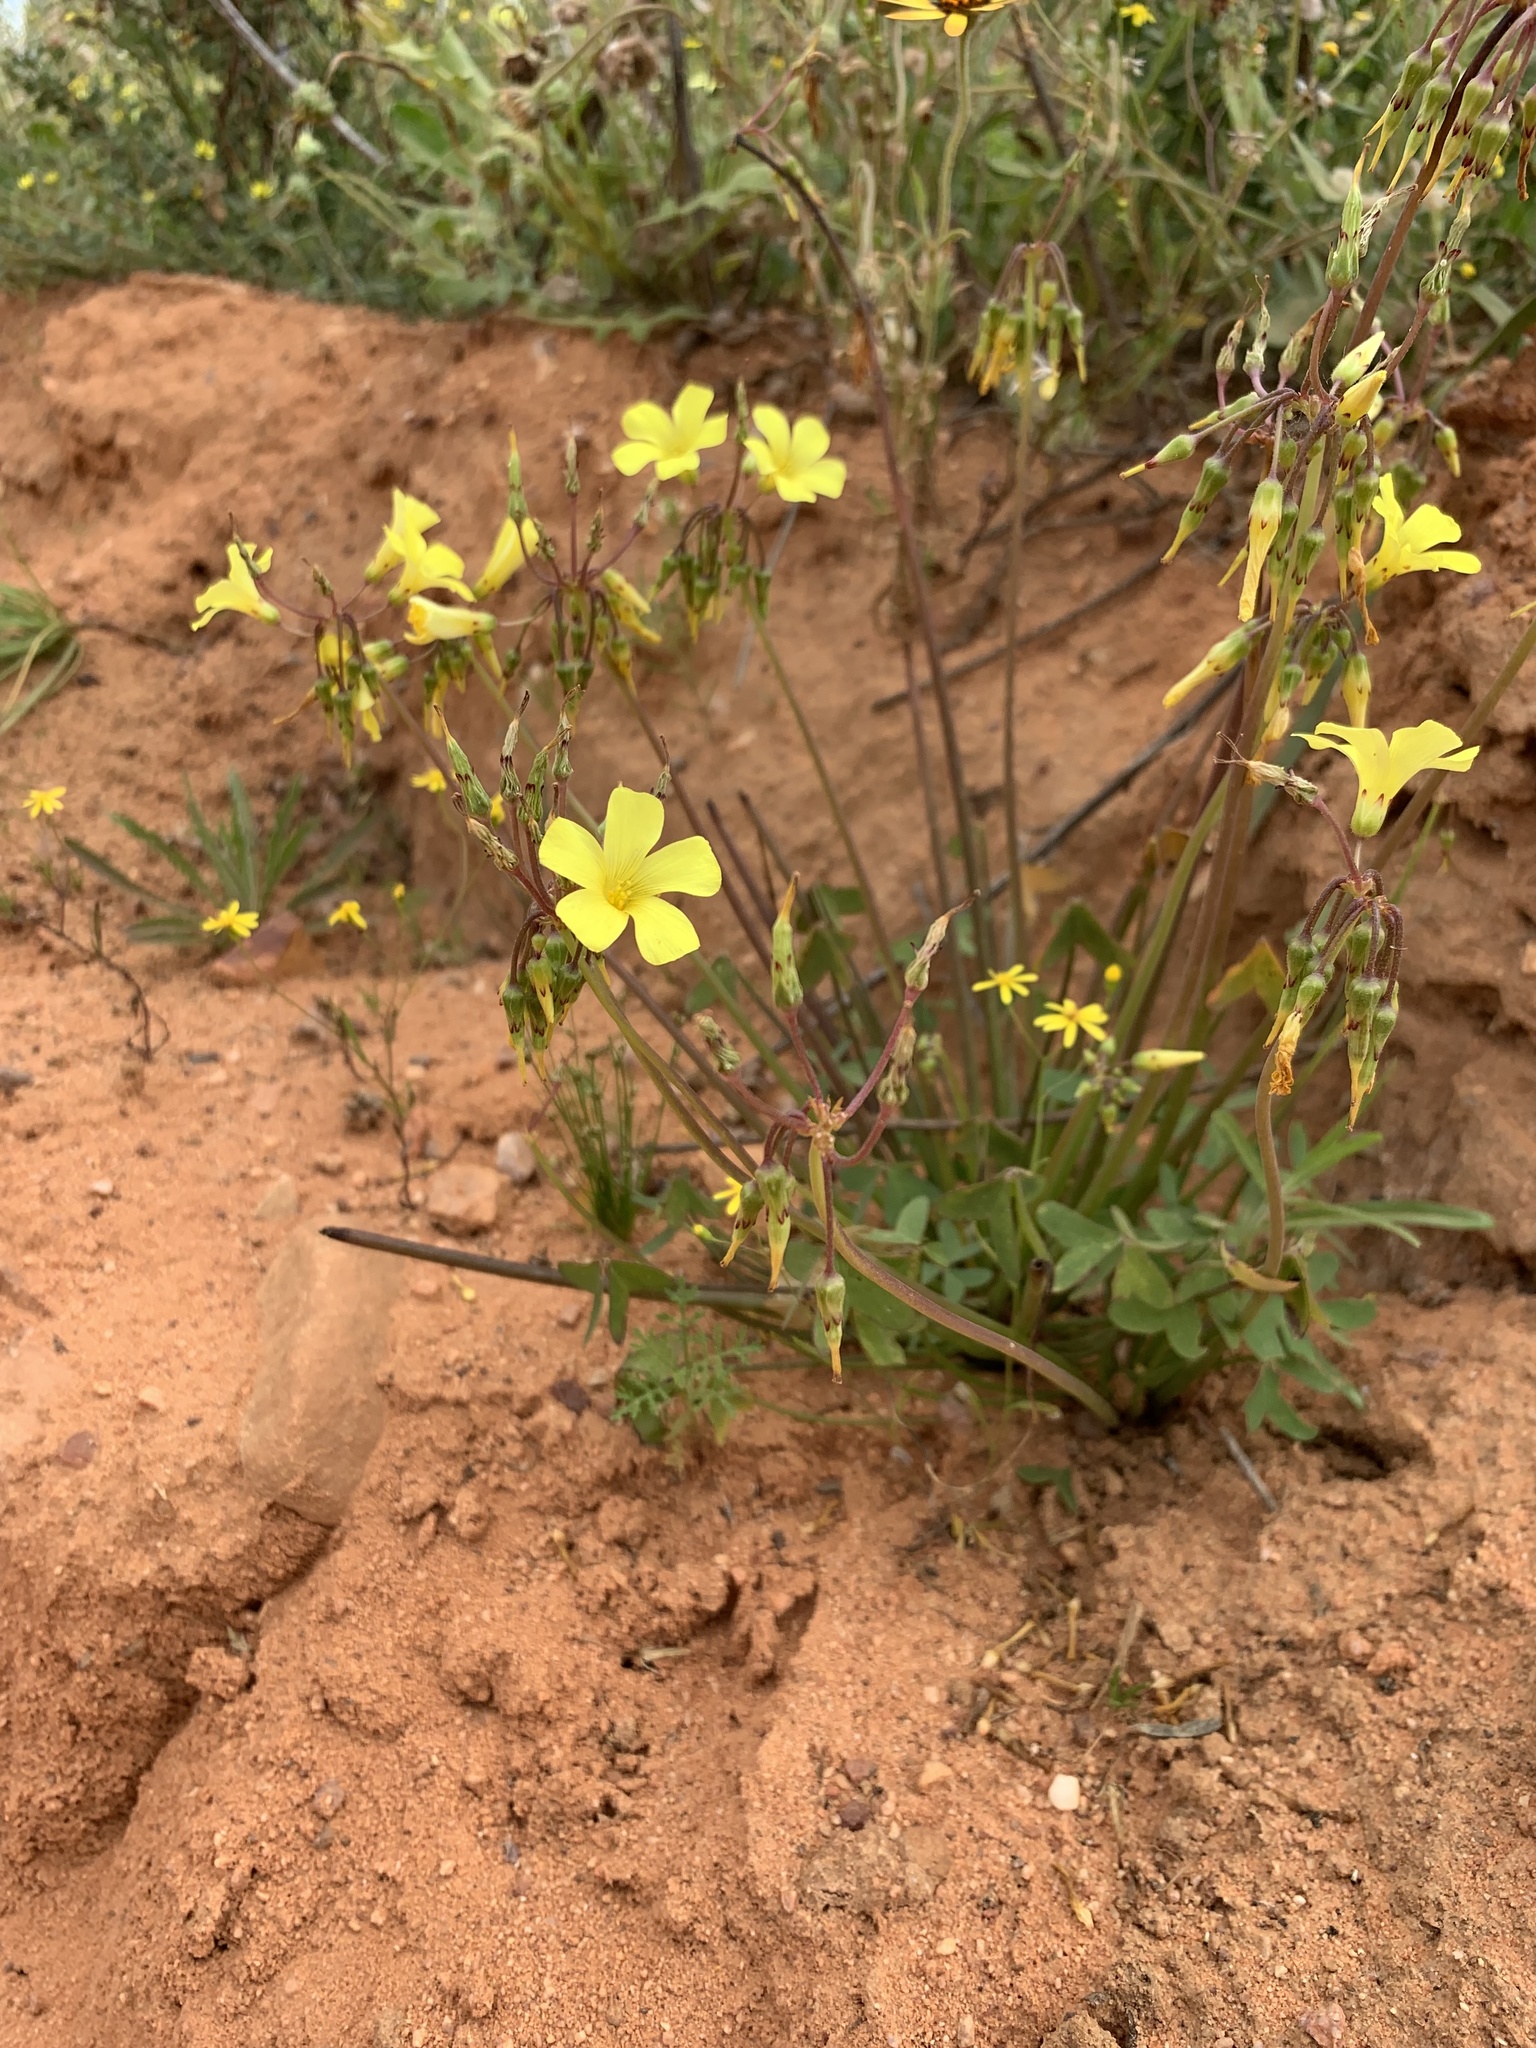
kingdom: Plantae
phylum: Tracheophyta
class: Magnoliopsida
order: Oxalidales
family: Oxalidaceae
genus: Oxalis
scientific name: Oxalis pes-caprae
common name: Bermuda-buttercup
